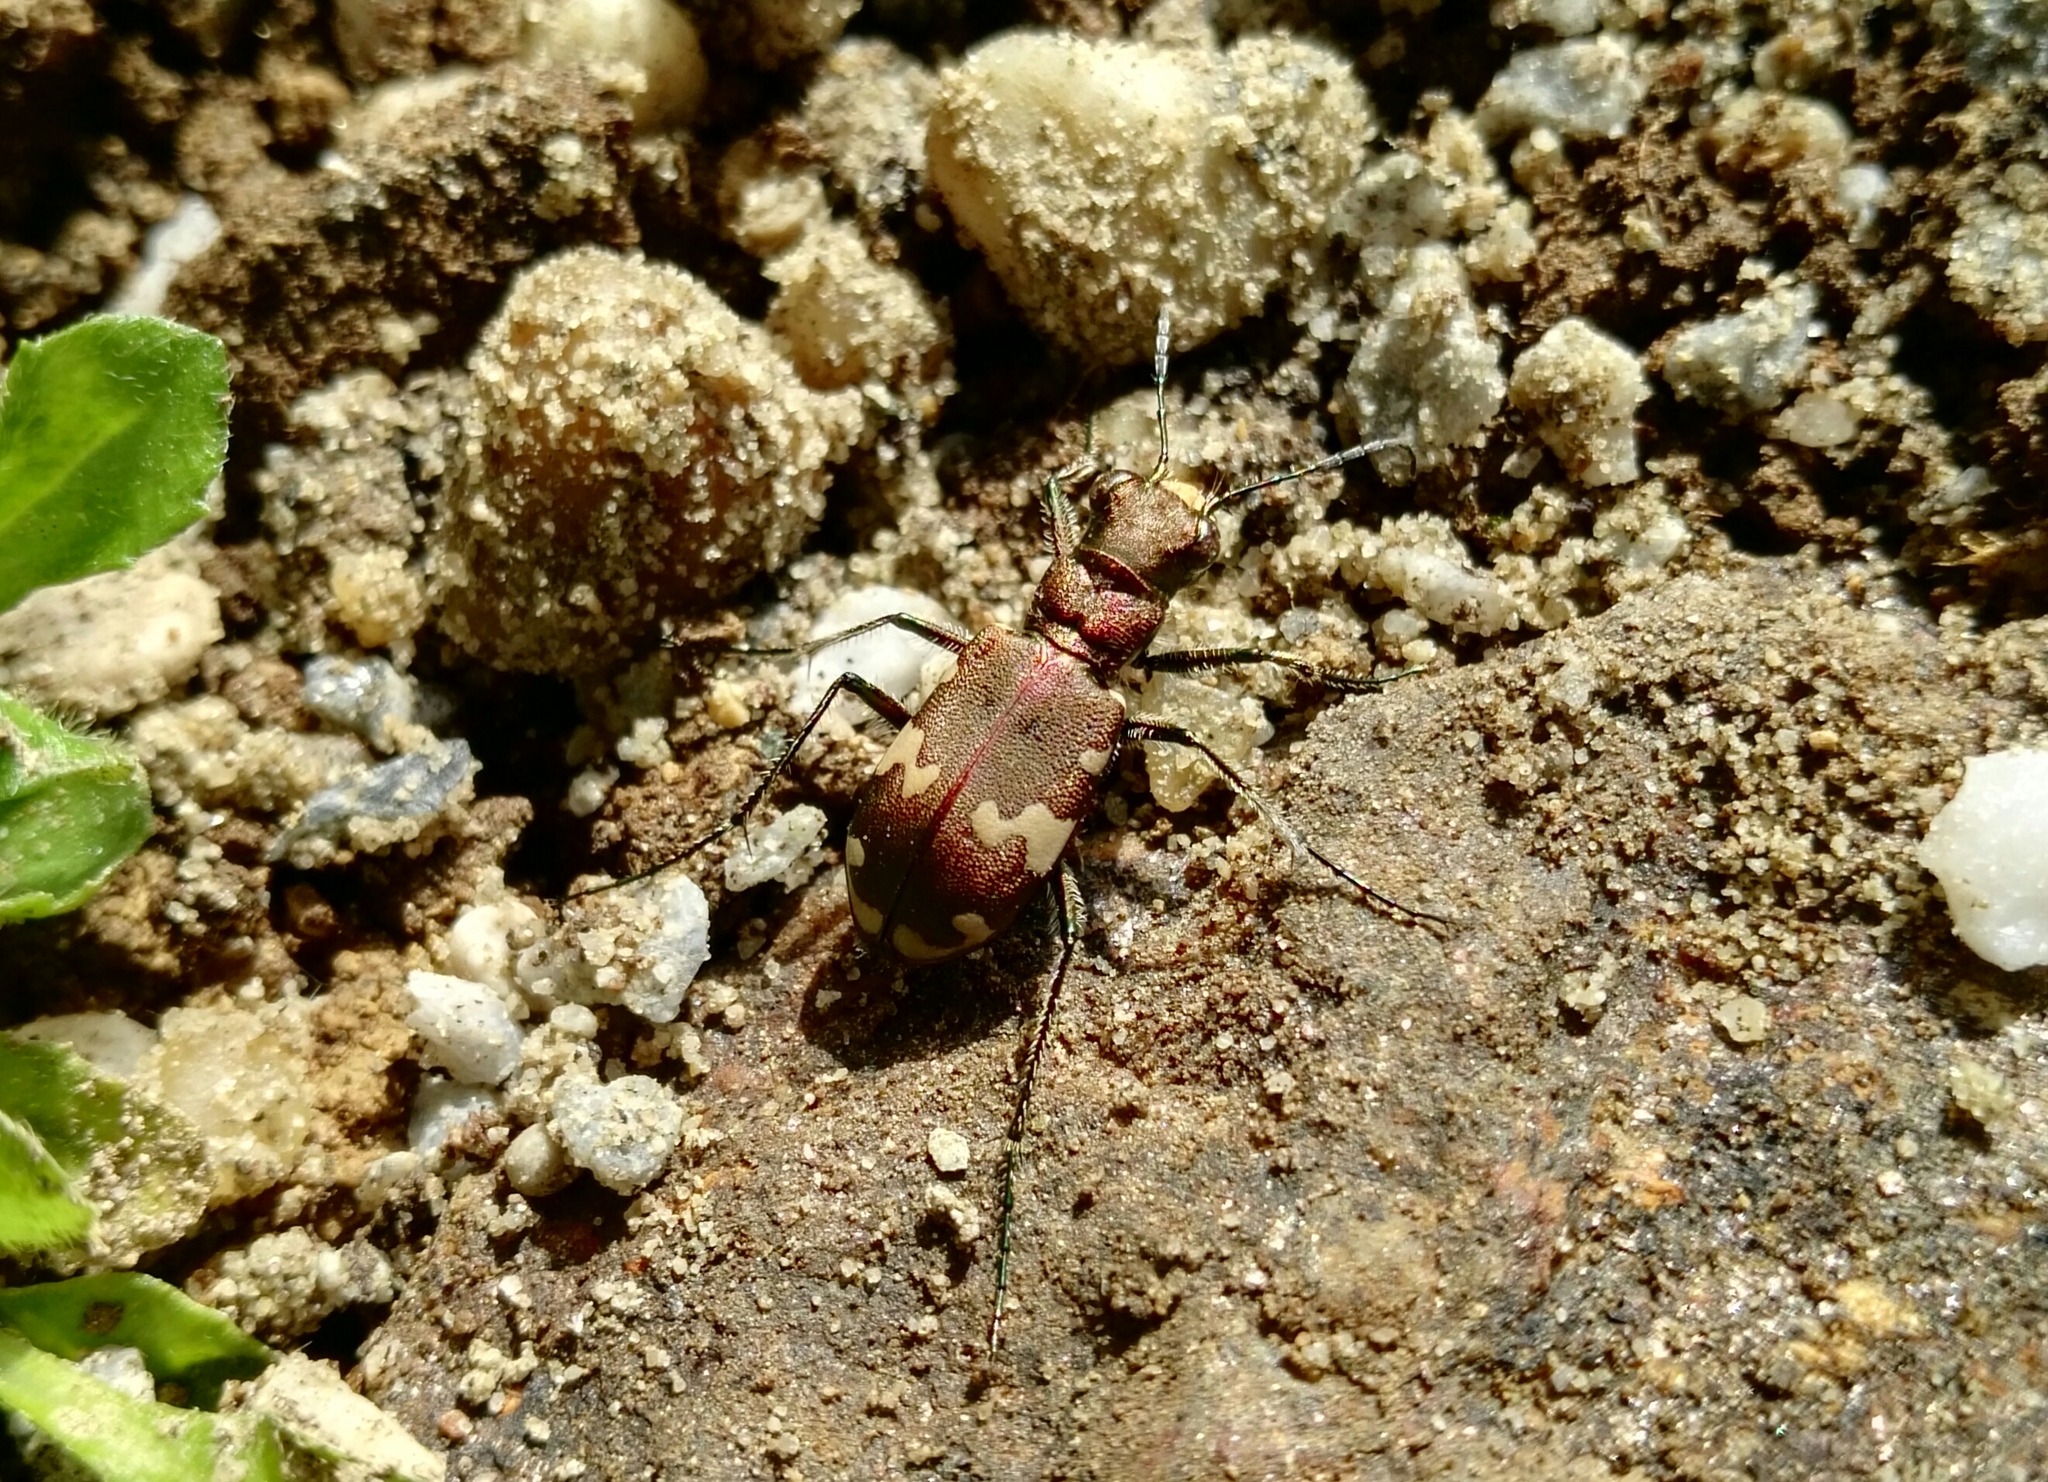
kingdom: Animalia
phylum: Arthropoda
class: Insecta
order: Coleoptera
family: Carabidae
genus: Cicindela
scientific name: Cicindela sylvicola
